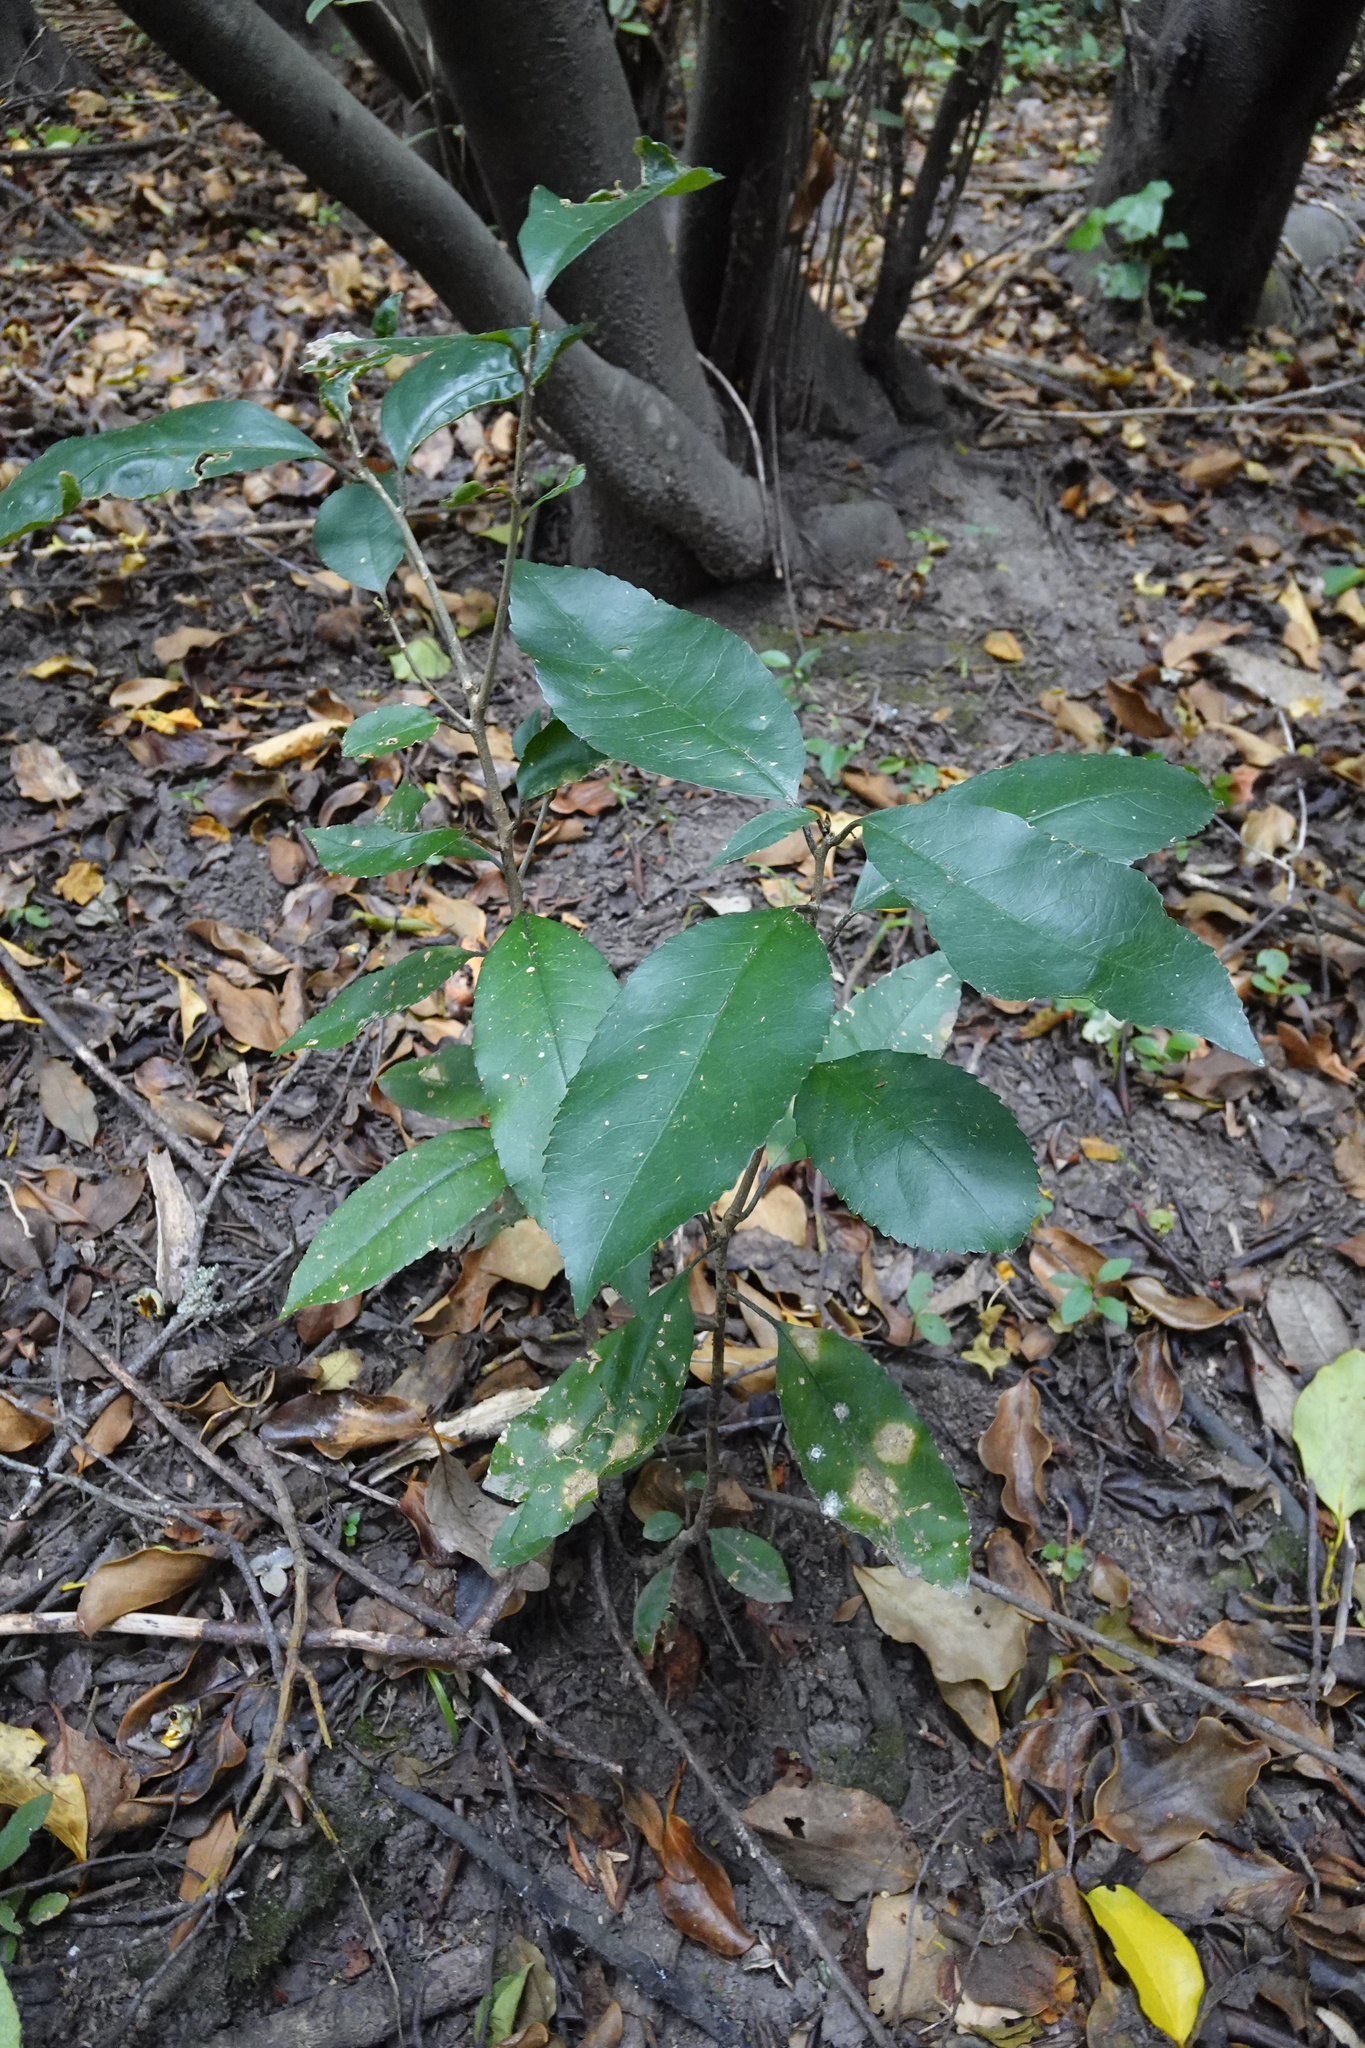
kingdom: Plantae
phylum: Tracheophyta
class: Magnoliopsida
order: Malpighiales
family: Violaceae
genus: Melicytus
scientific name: Melicytus ramiflorus
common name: Mahoe
